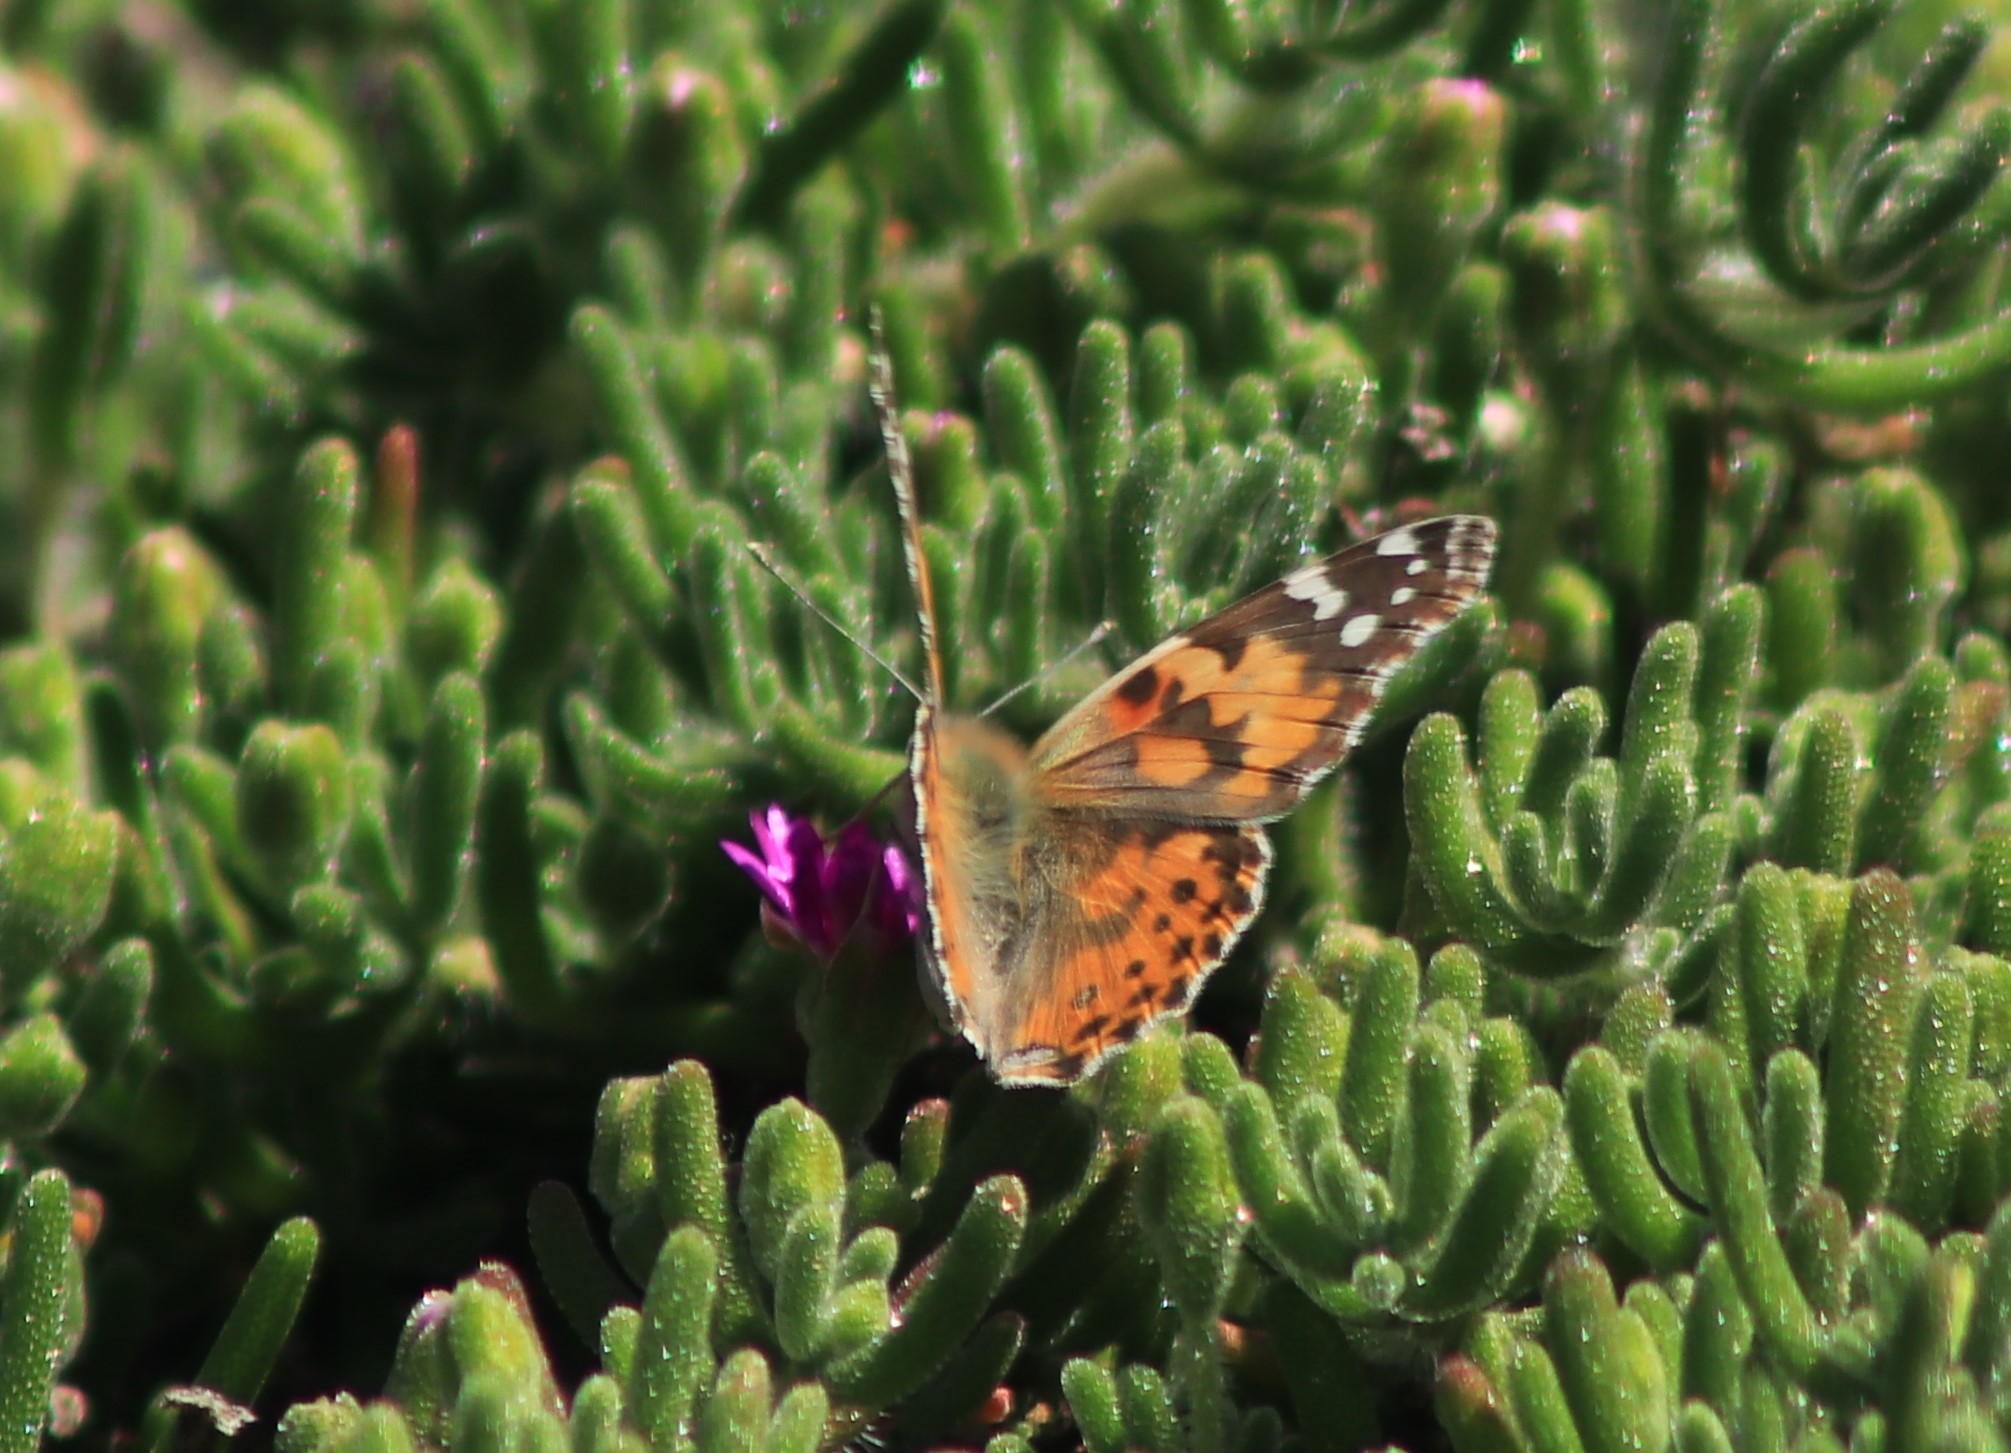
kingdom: Animalia
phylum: Arthropoda
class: Insecta
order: Lepidoptera
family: Nymphalidae
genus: Vanessa
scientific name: Vanessa cardui
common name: Painted lady
